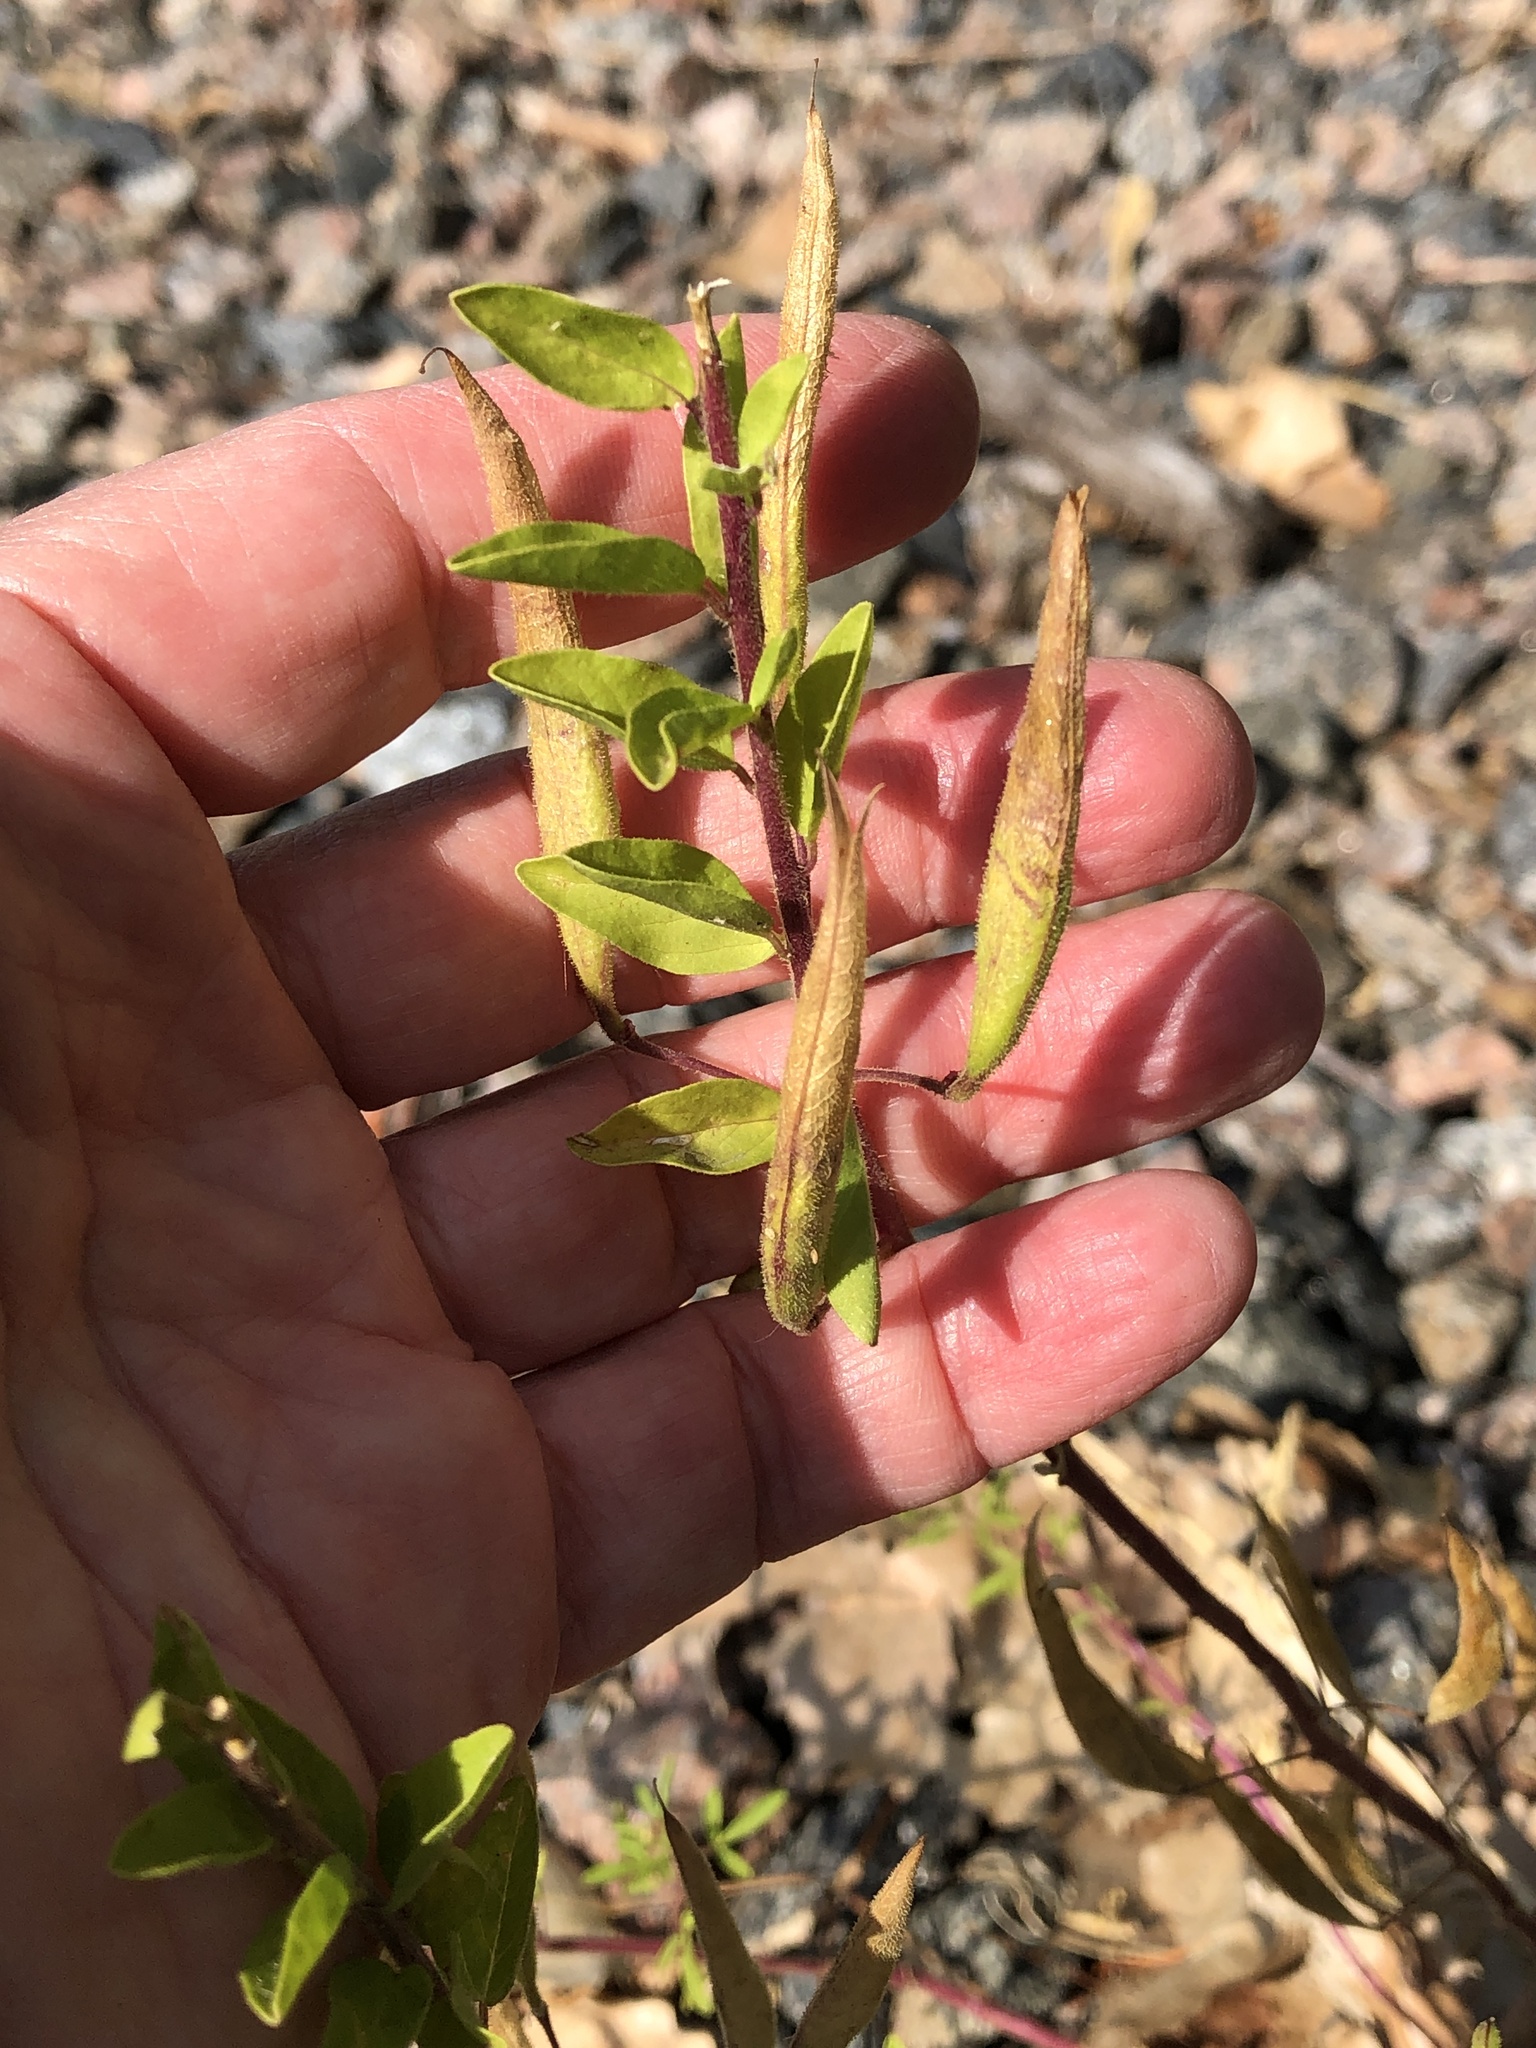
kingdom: Plantae
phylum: Tracheophyta
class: Magnoliopsida
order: Brassicales
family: Cleomaceae
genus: Polanisia
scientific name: Polanisia dodecandra
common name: Clammyweed
